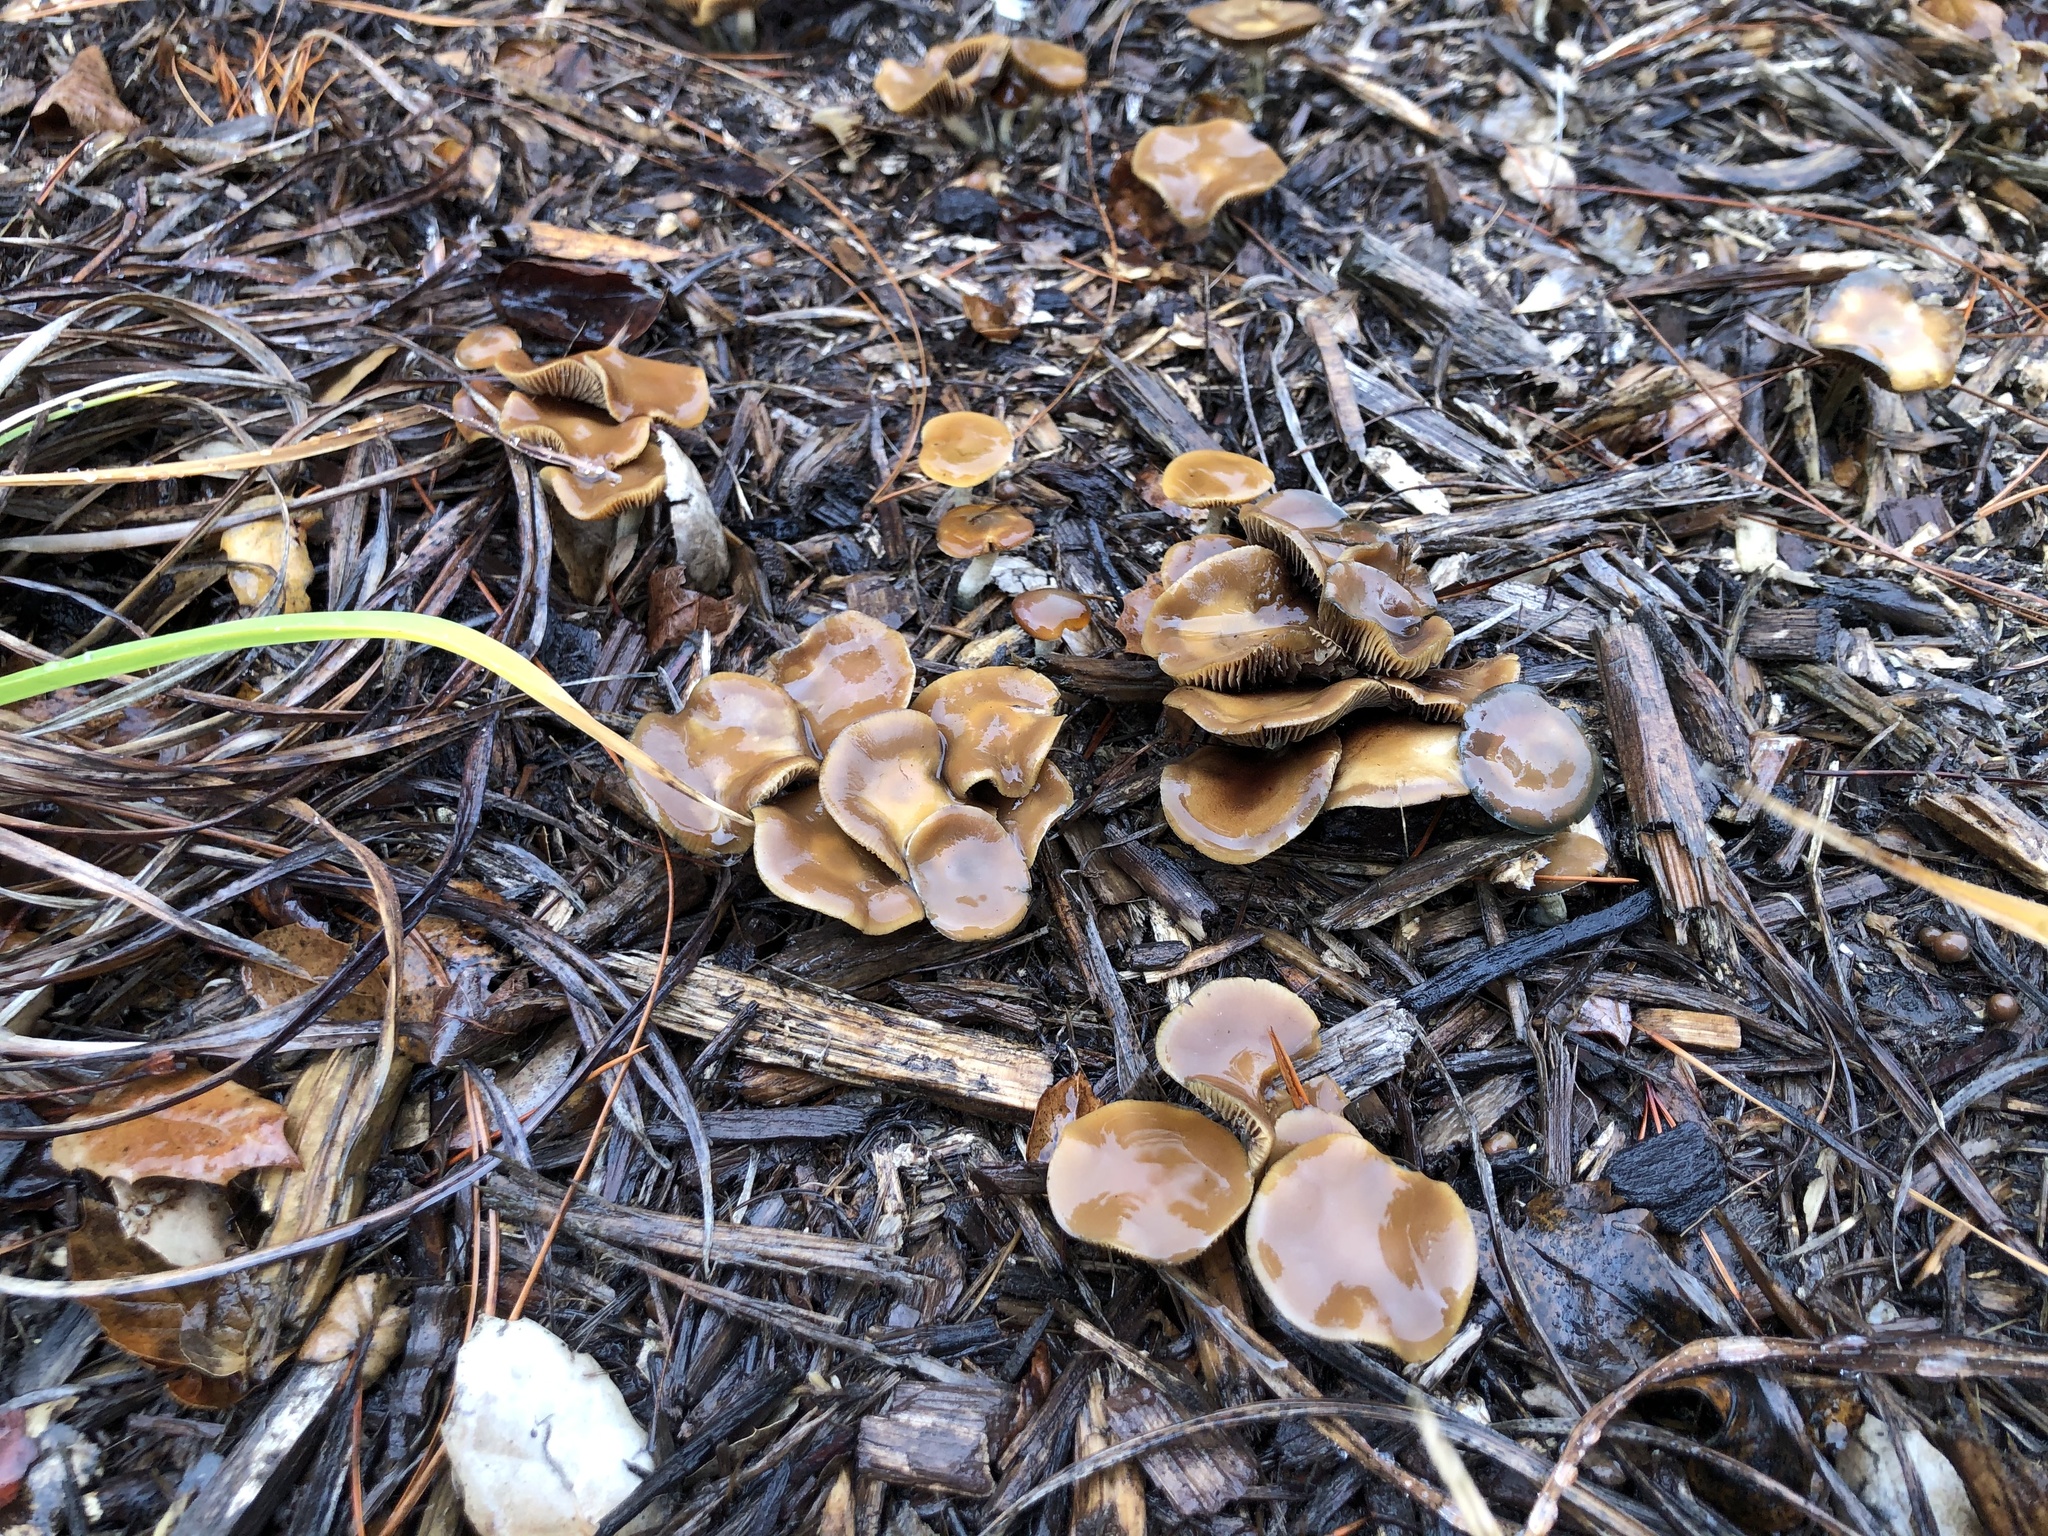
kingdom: Fungi
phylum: Basidiomycota
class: Agaricomycetes
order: Agaricales
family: Hymenogastraceae
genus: Psilocybe
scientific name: Psilocybe cyanescens
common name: Blueleg brownie
